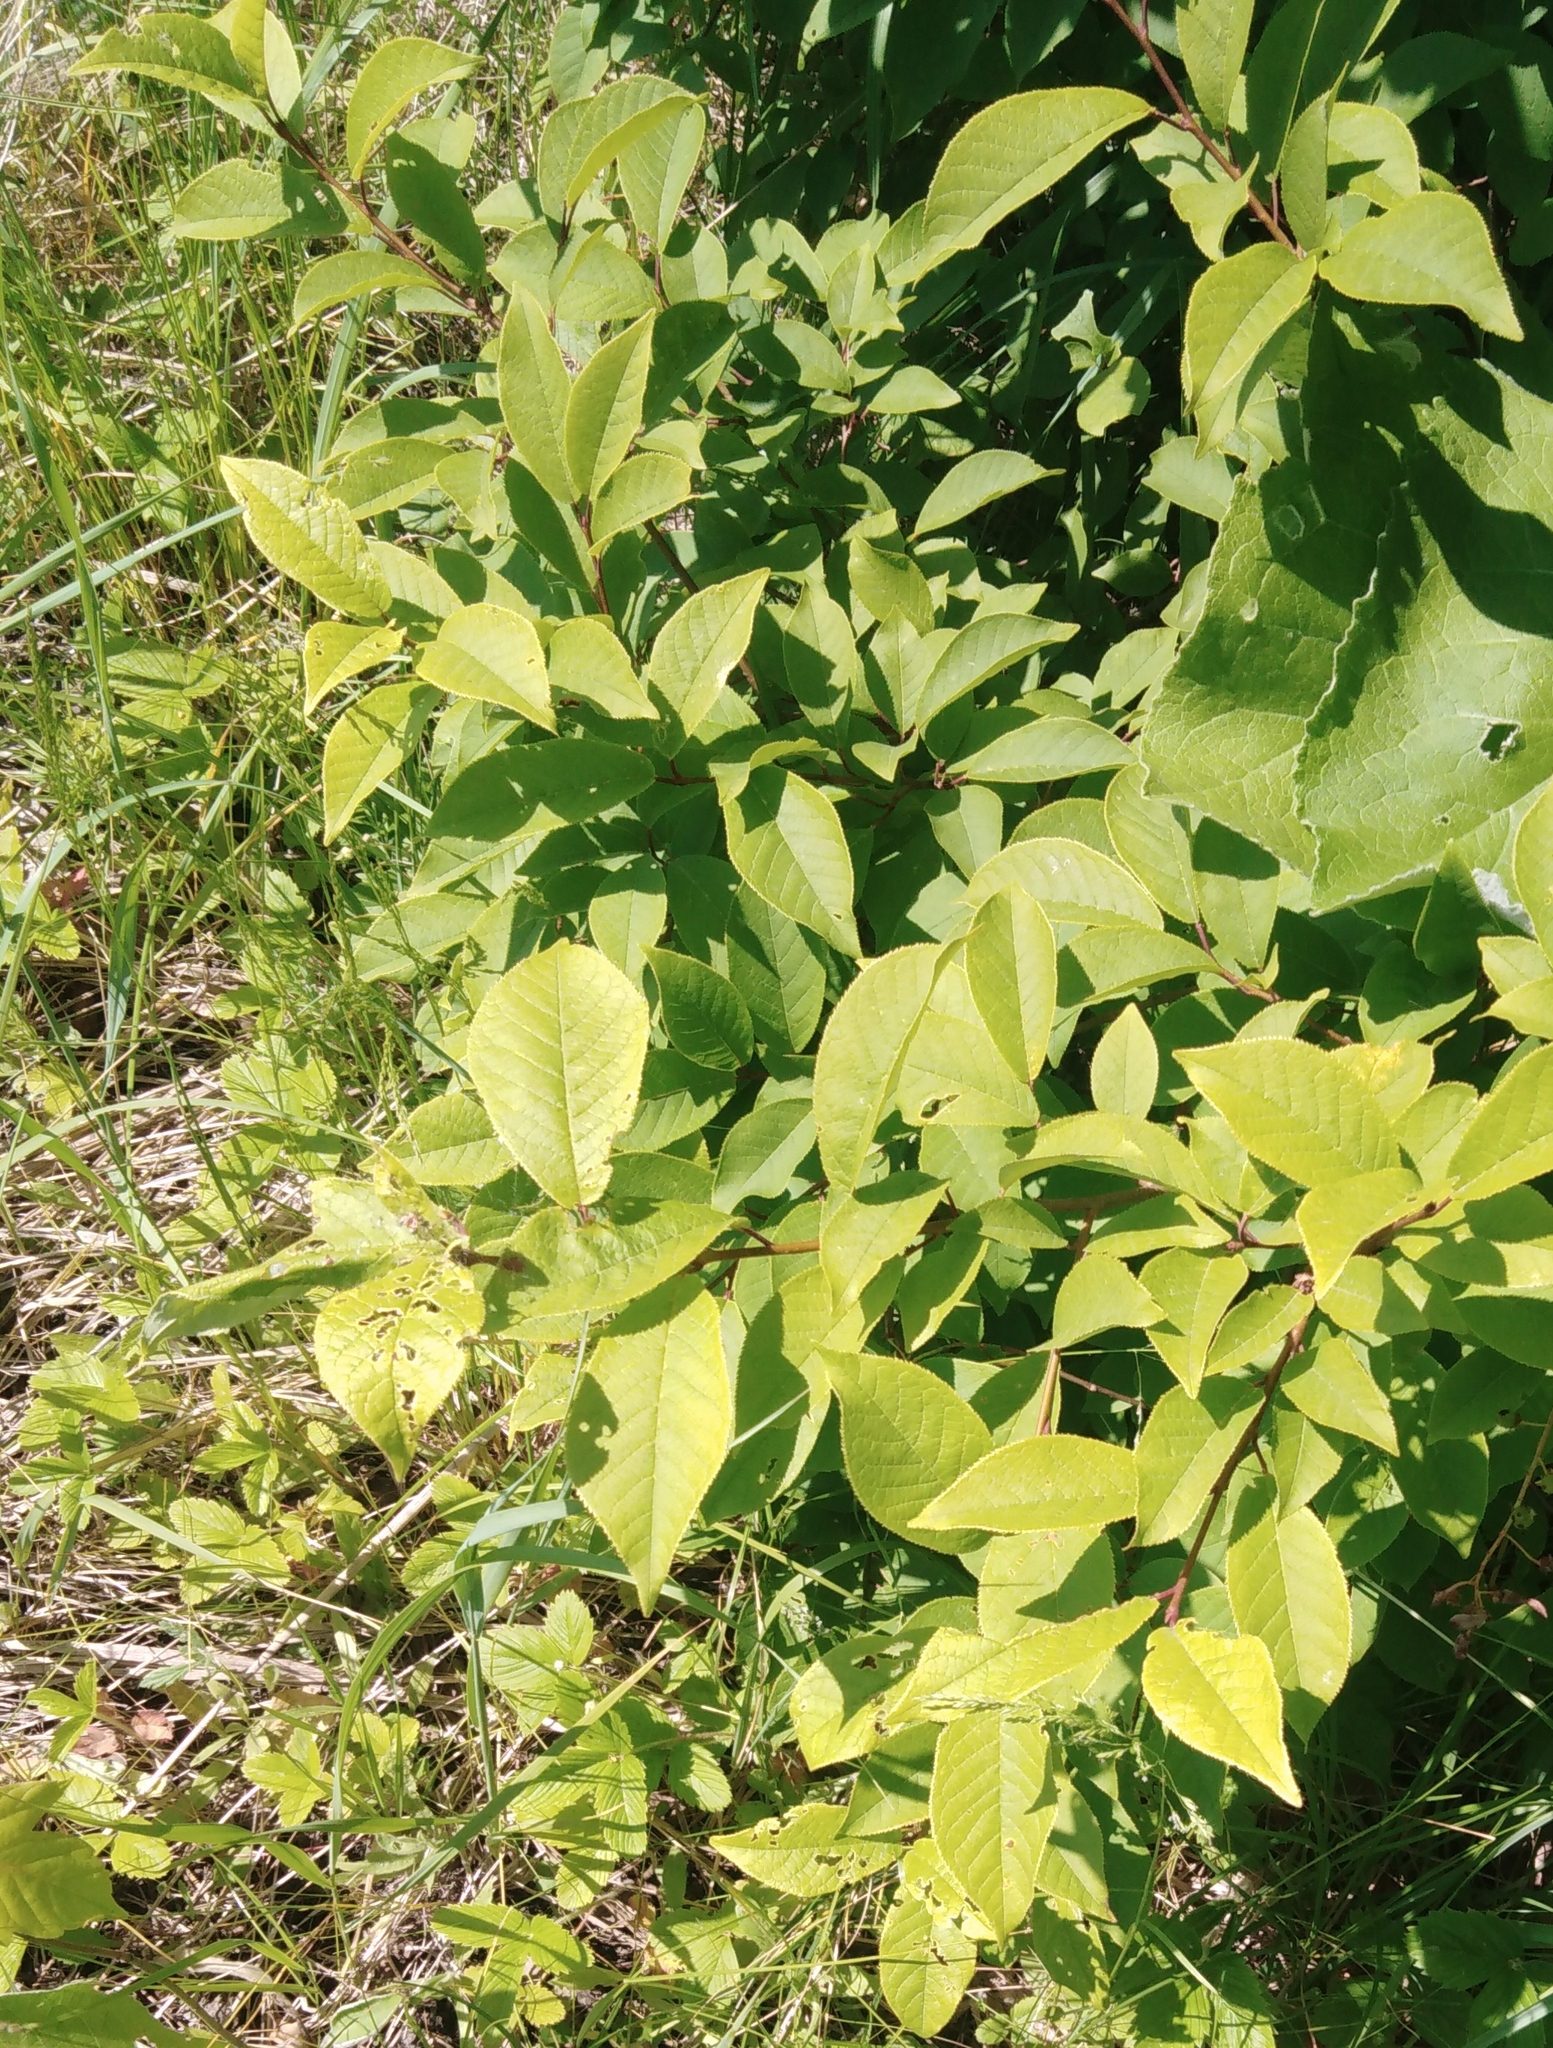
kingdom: Plantae
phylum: Tracheophyta
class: Magnoliopsida
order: Rosales
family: Rosaceae
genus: Prunus
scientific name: Prunus virginiana
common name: Chokecherry
